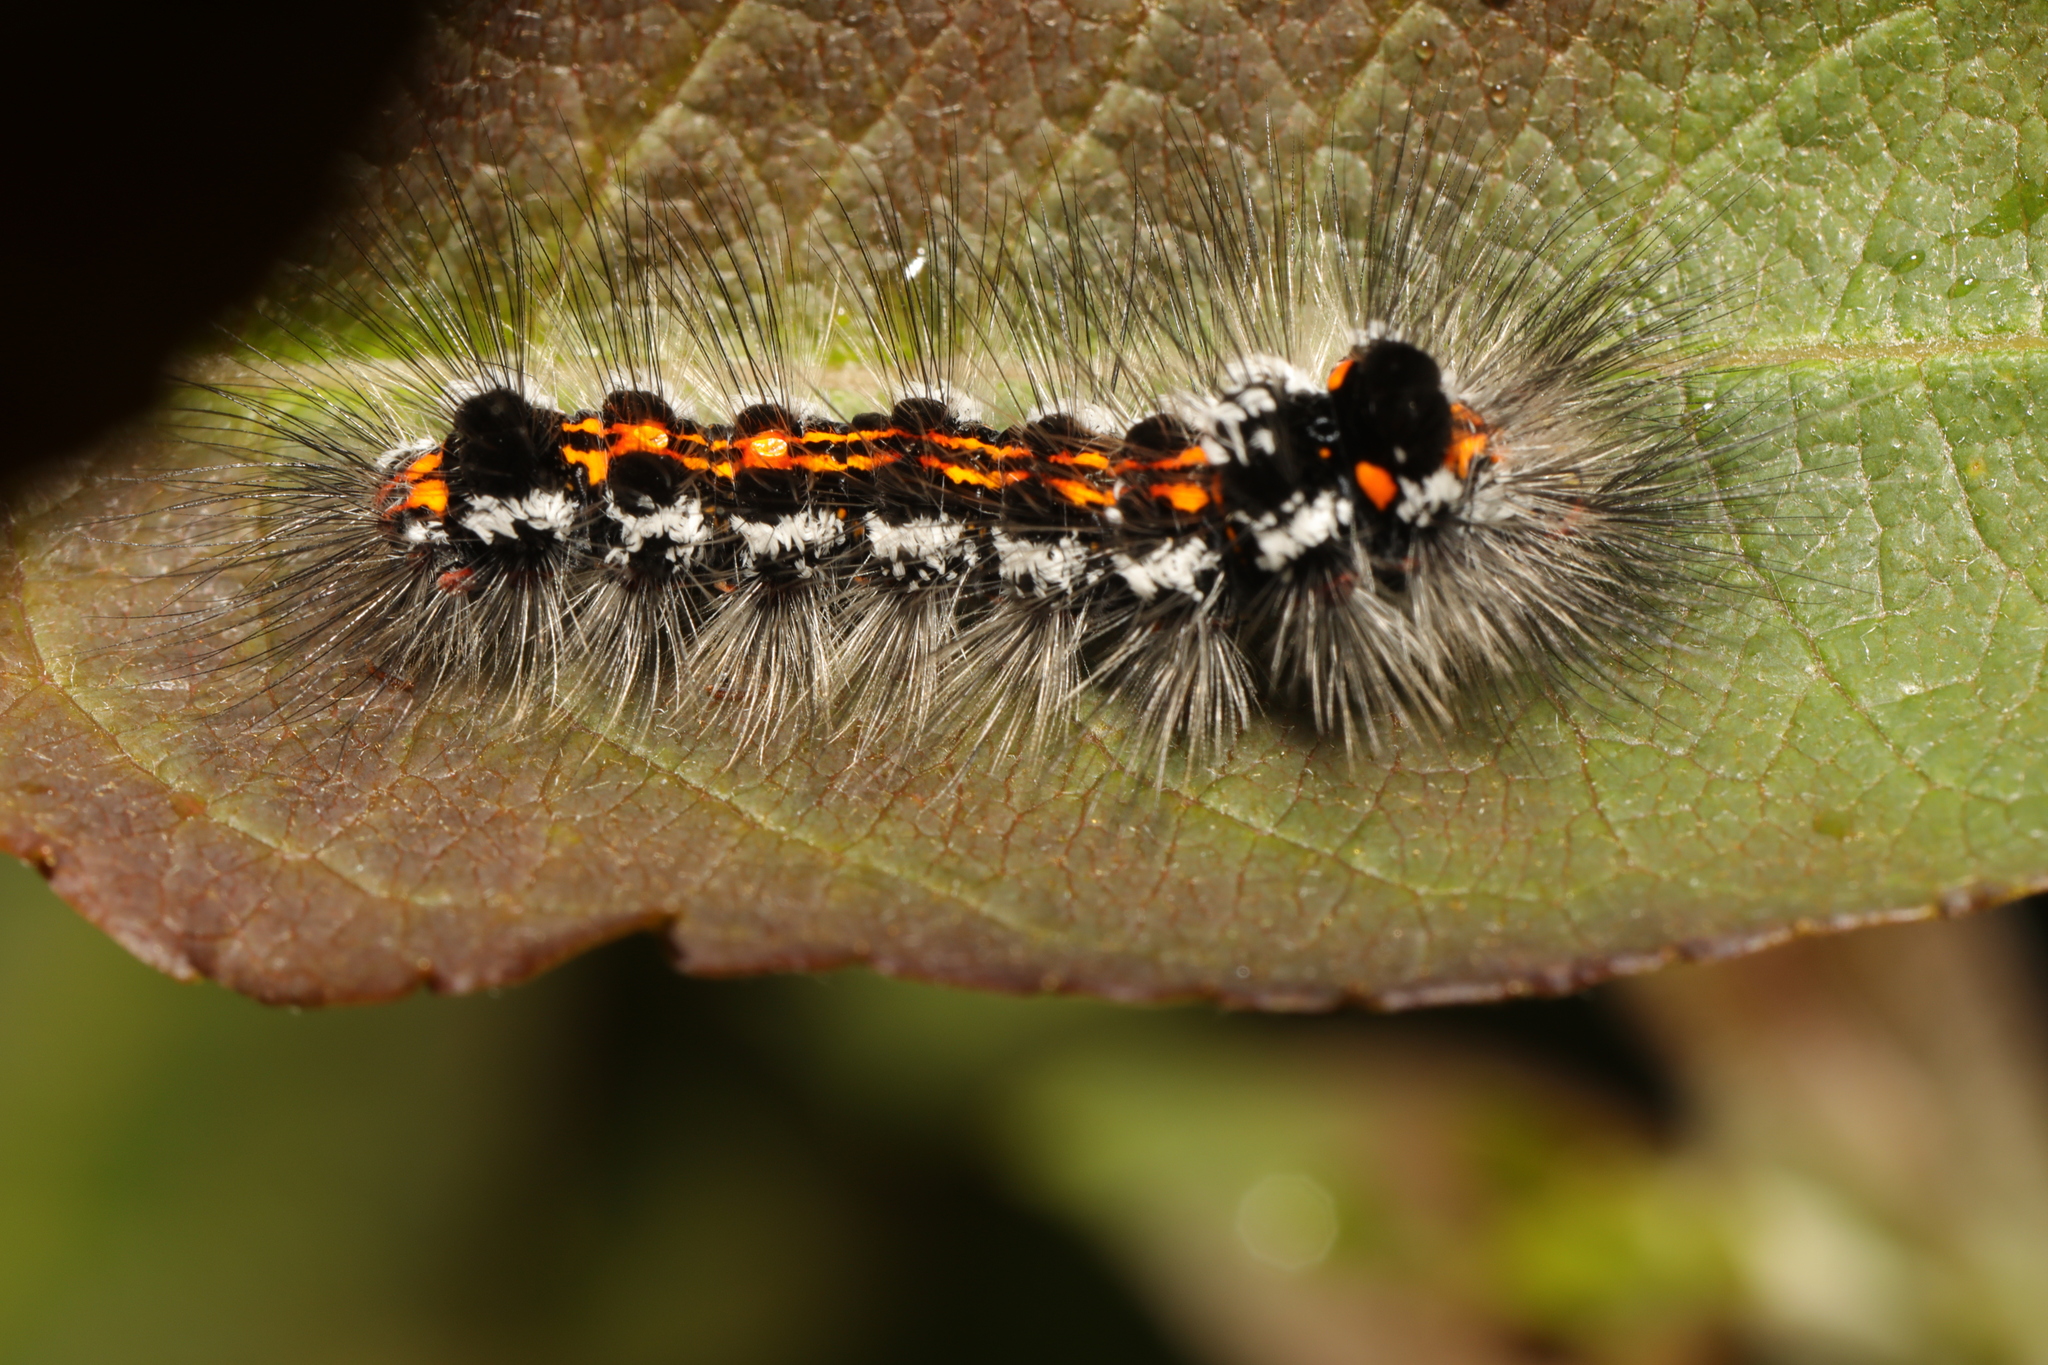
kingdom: Animalia
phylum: Arthropoda
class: Insecta
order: Lepidoptera
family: Erebidae
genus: Sphrageidus
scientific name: Sphrageidus similis
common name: Yellow-tail
